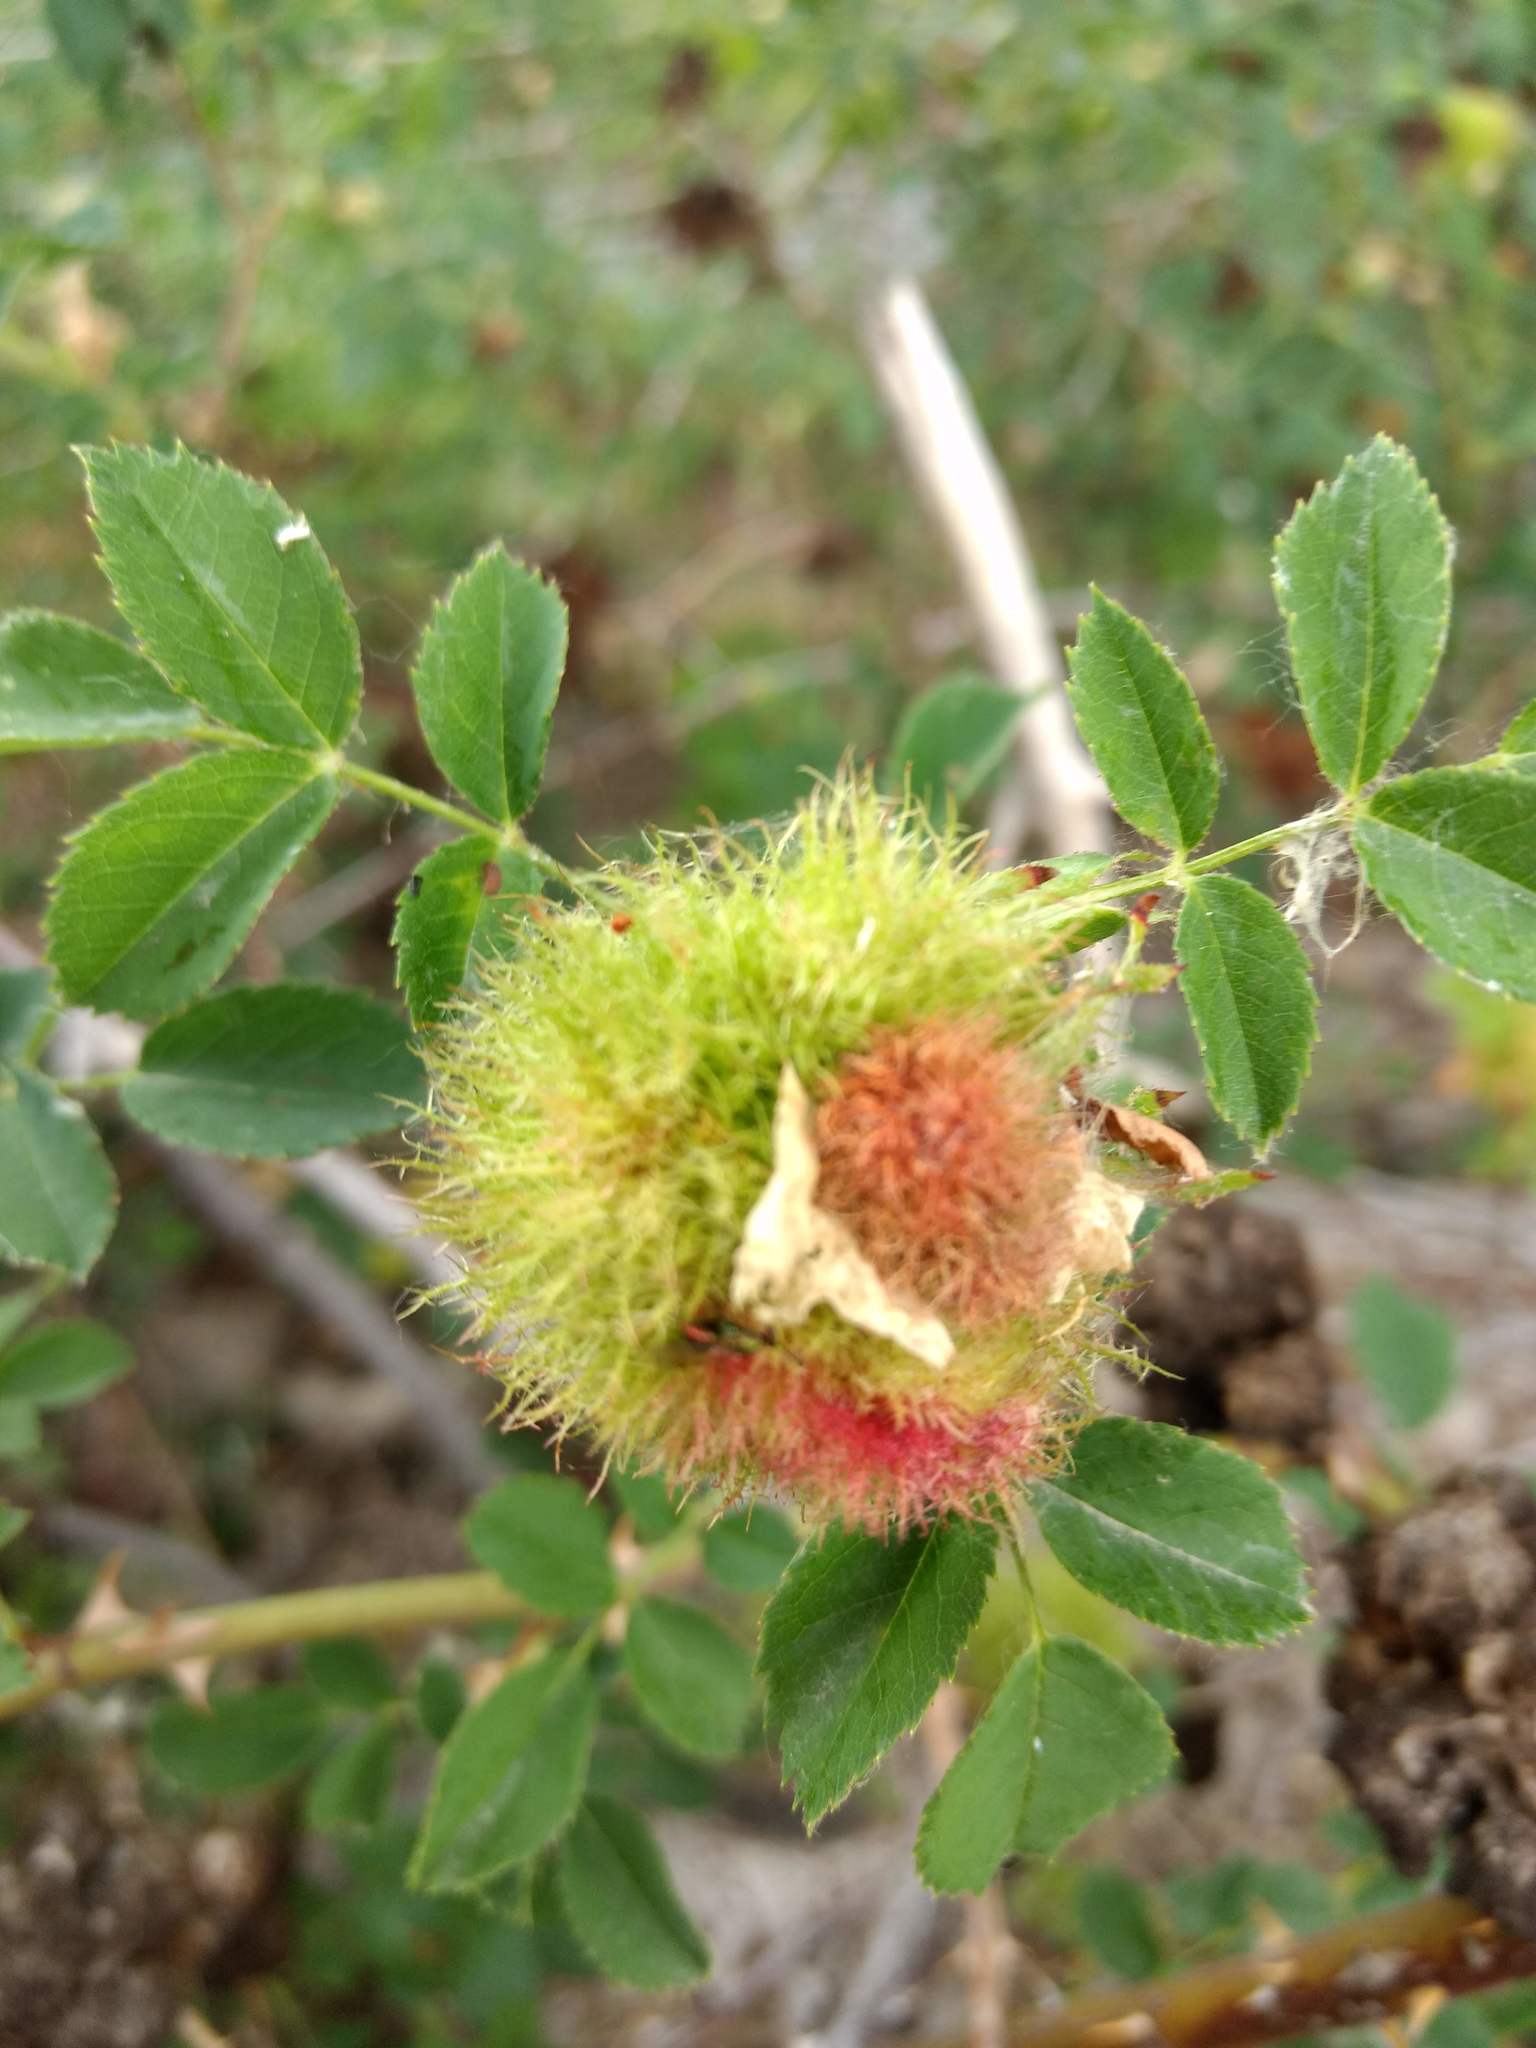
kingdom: Animalia
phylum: Arthropoda
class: Insecta
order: Hymenoptera
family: Cynipidae
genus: Diplolepis
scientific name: Diplolepis rosae
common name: Bedeguar gall
